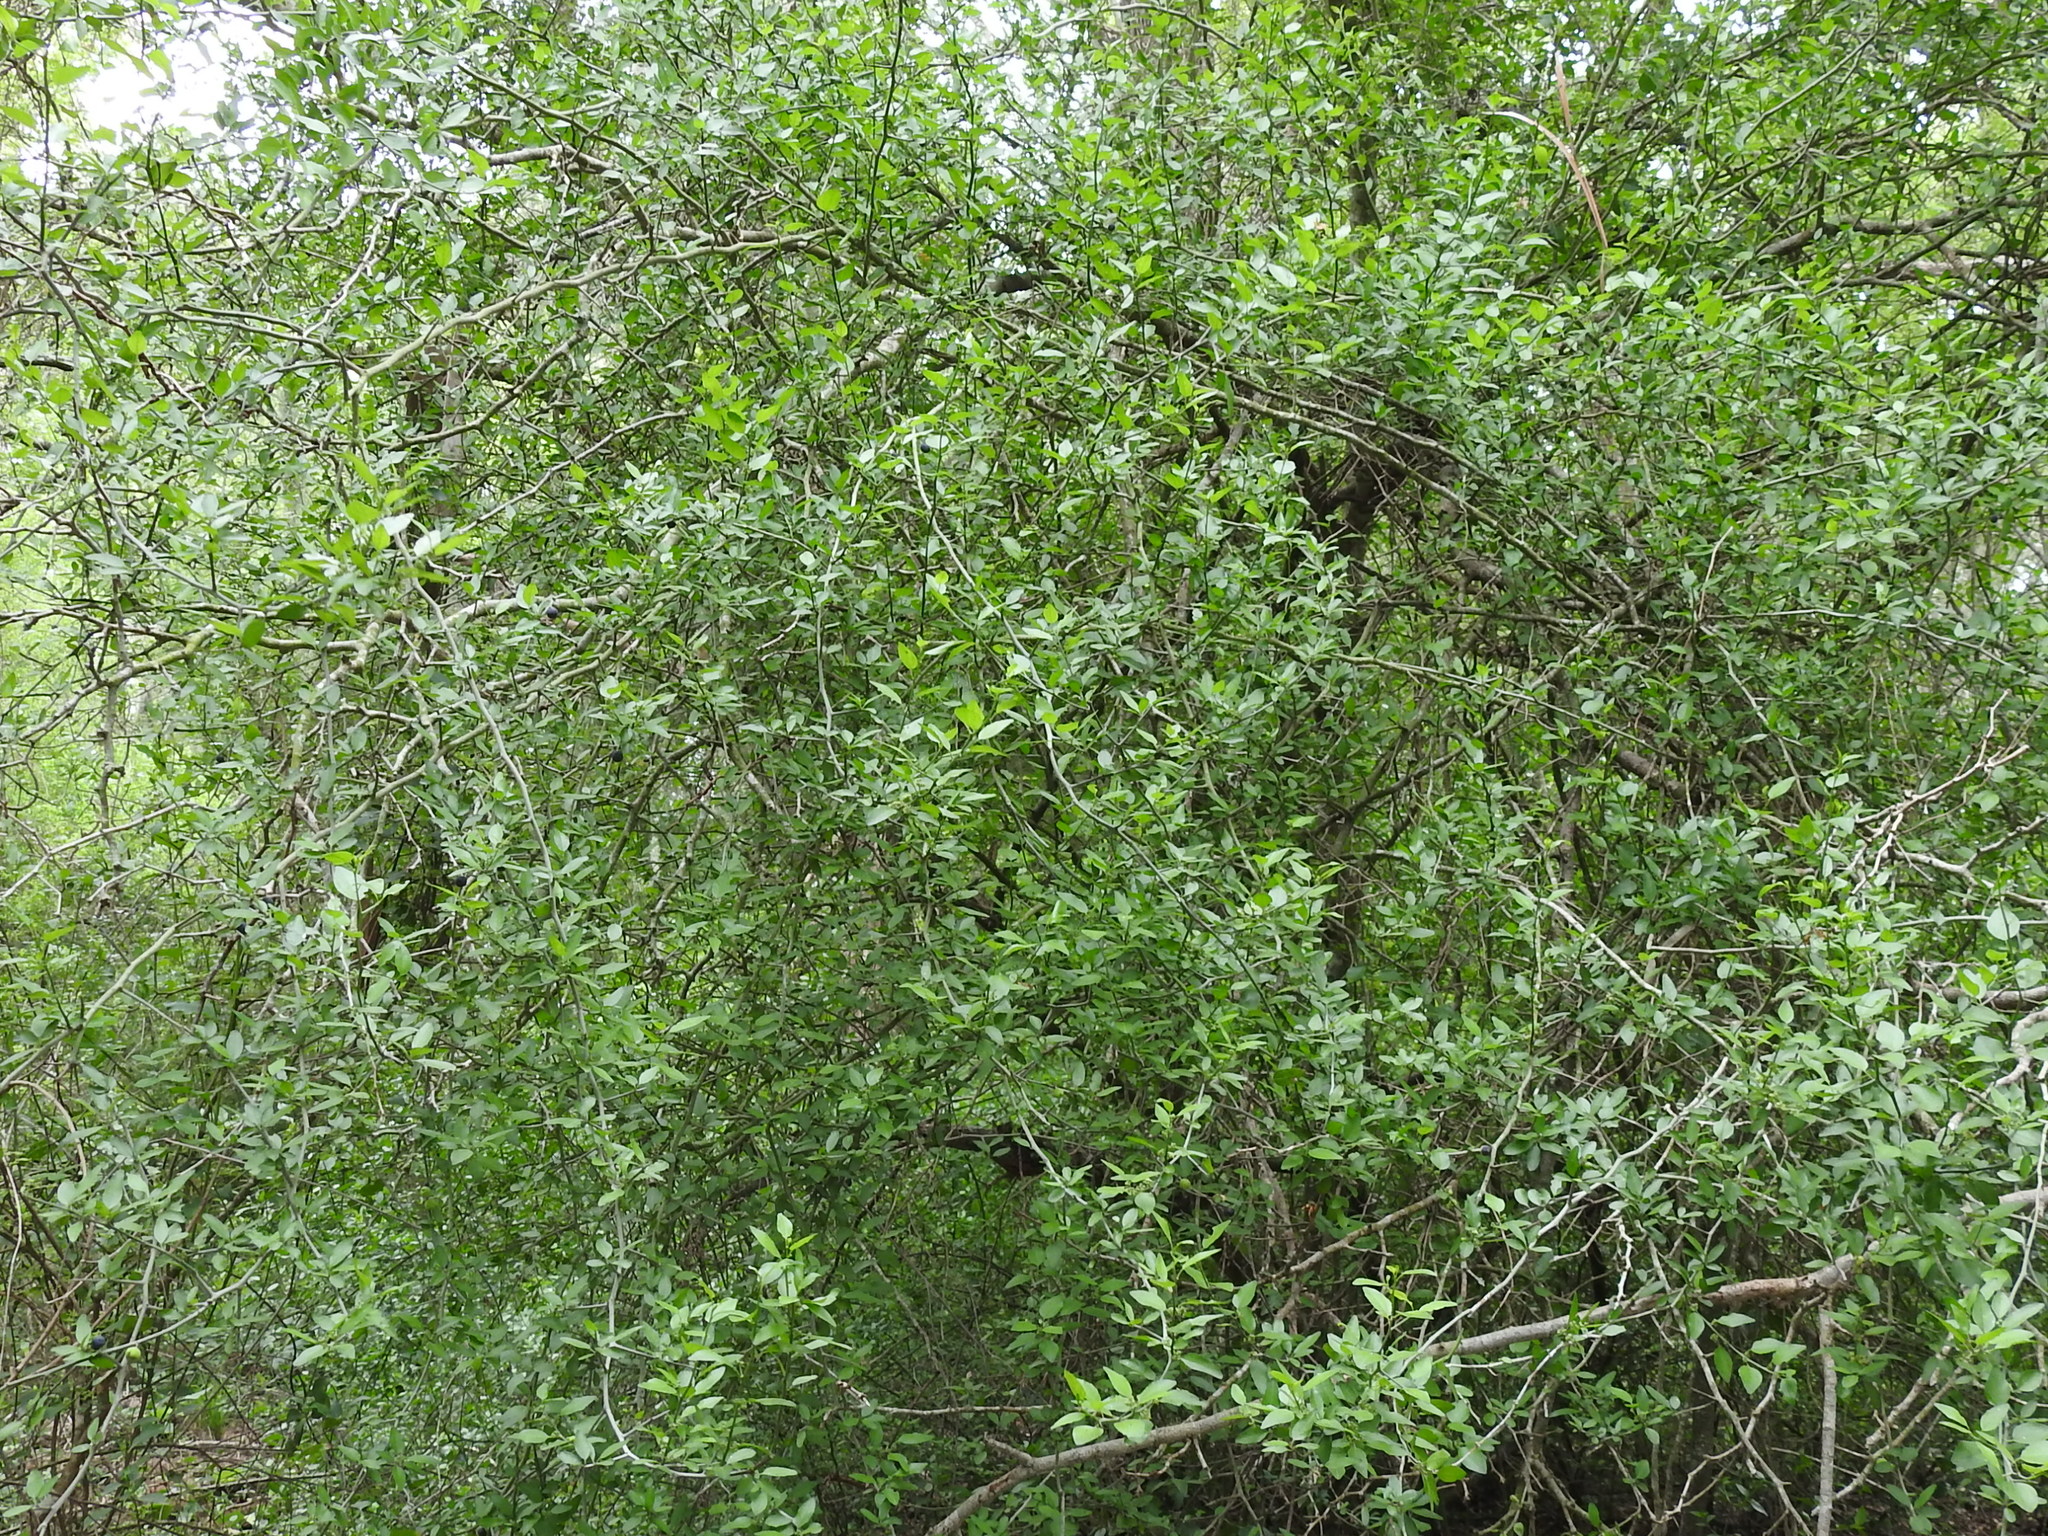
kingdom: Plantae
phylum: Tracheophyta
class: Magnoliopsida
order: Rosales
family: Rhamnaceae
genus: Sarcomphalus
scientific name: Sarcomphalus obtusifolius
